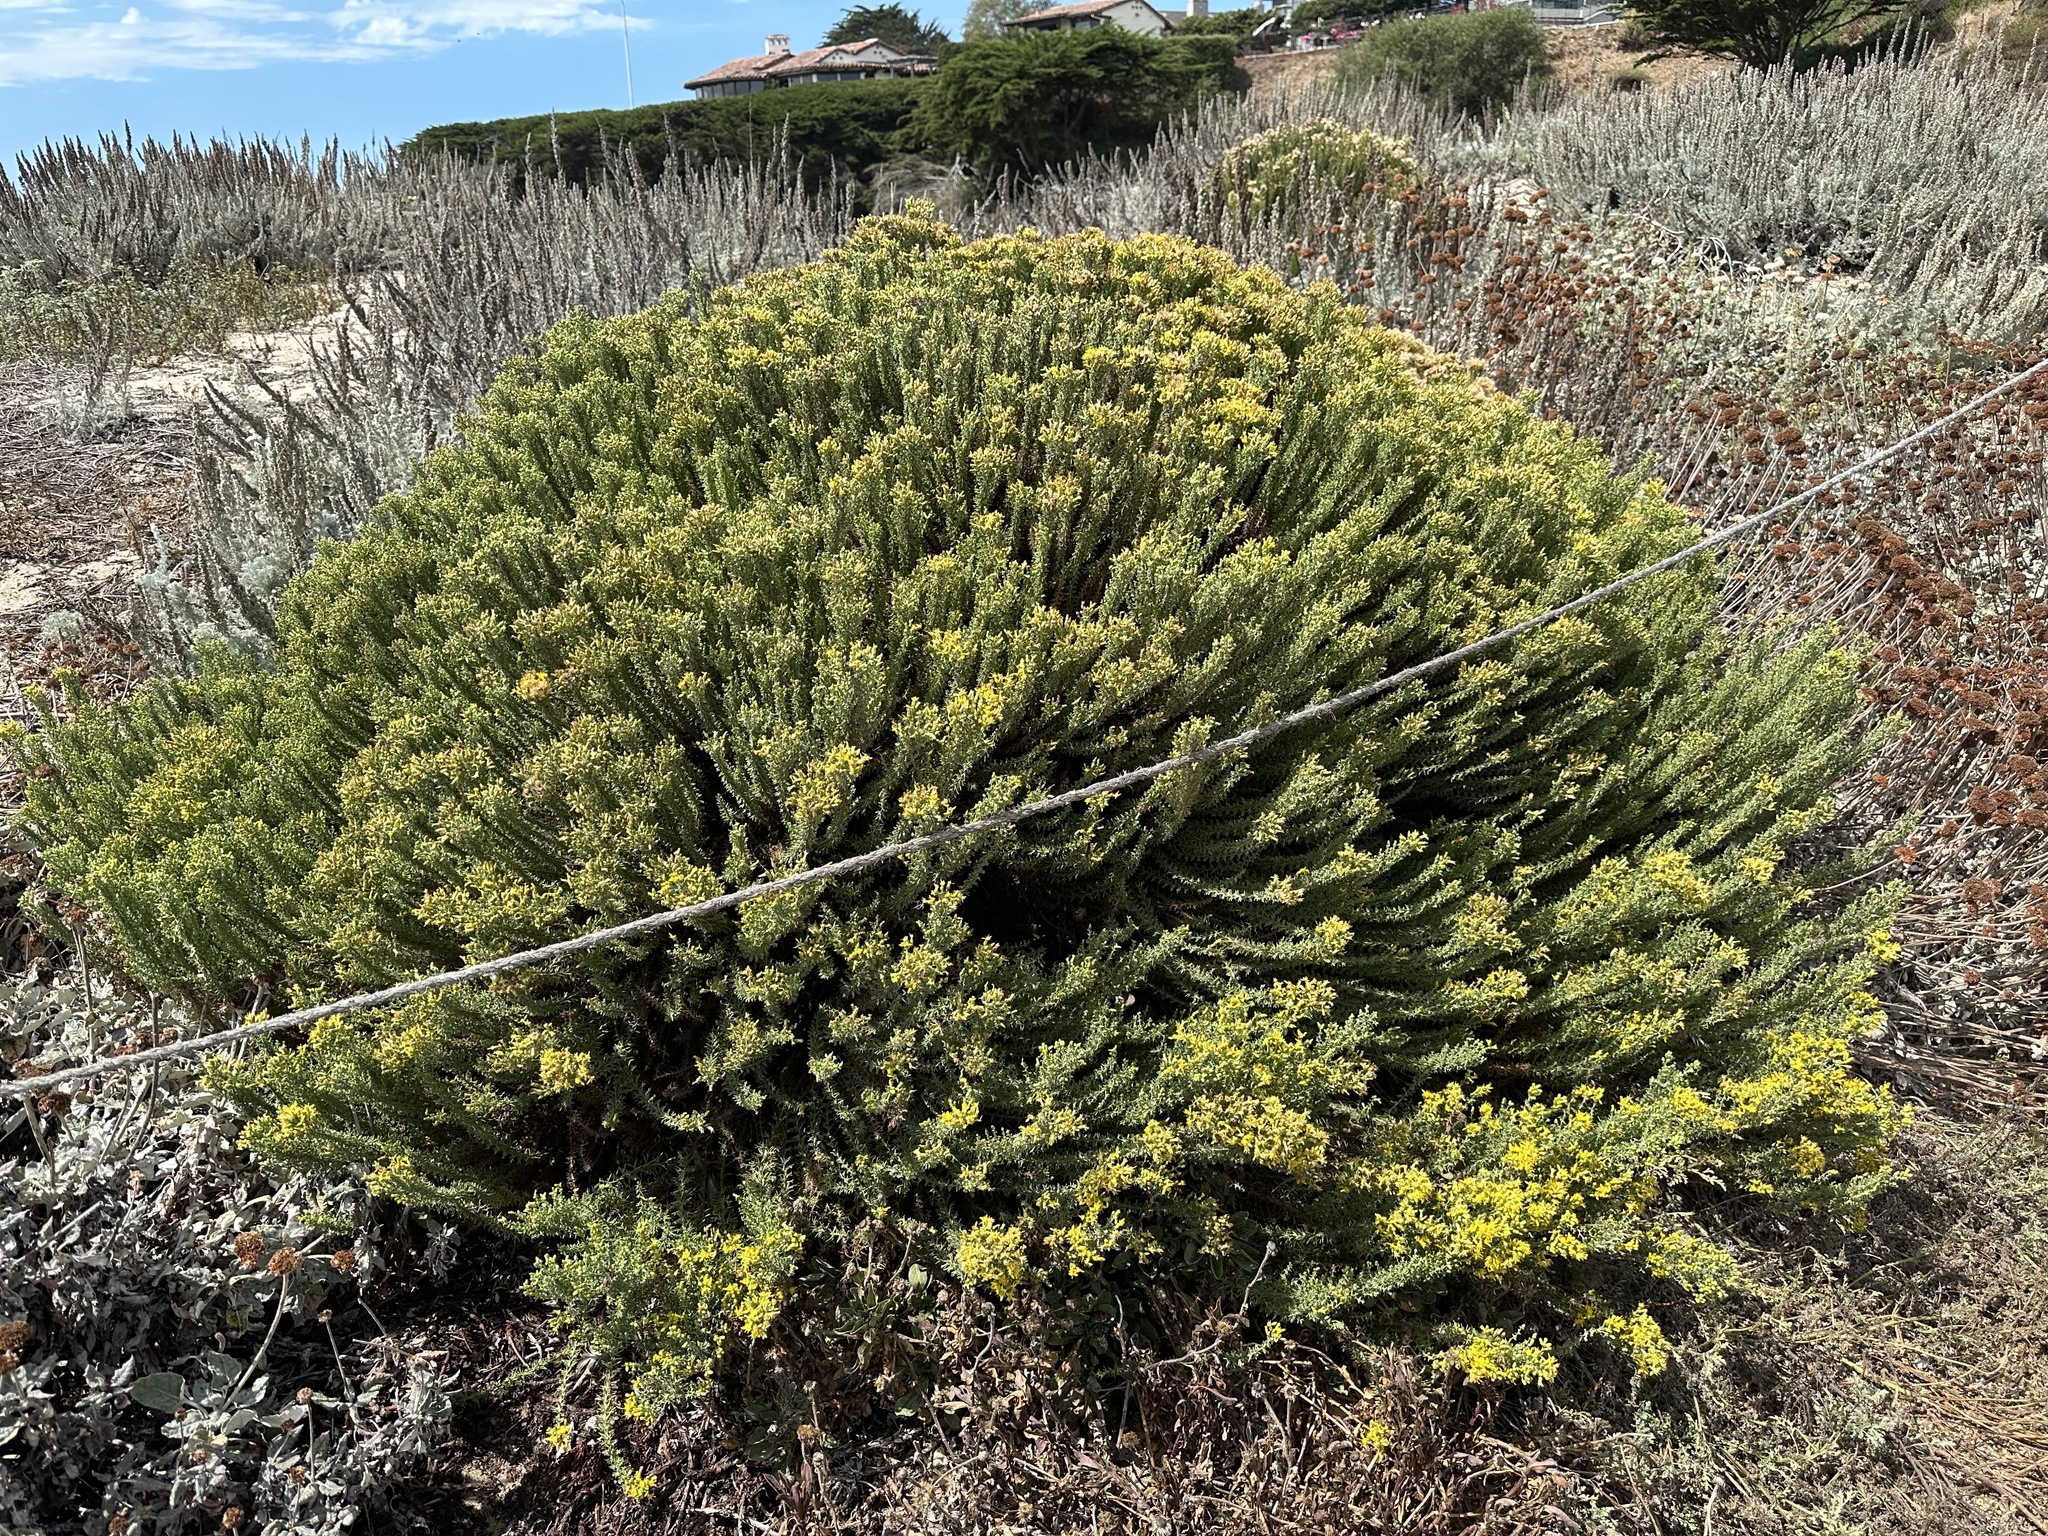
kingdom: Plantae
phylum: Tracheophyta
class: Magnoliopsida
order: Asterales
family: Asteraceae
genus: Ericameria
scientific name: Ericameria ericoides
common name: California goldenbush
